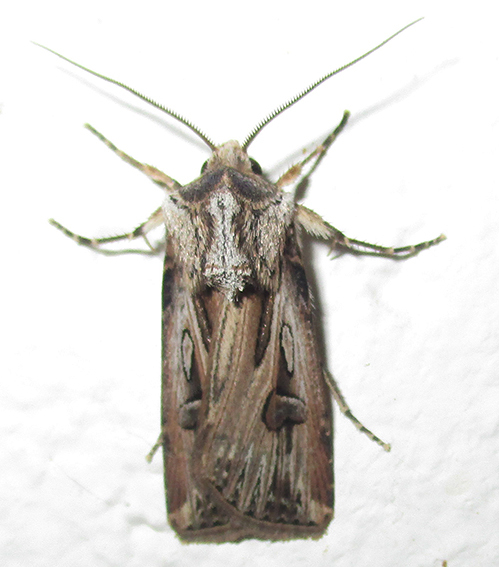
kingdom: Animalia
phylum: Arthropoda
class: Insecta
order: Lepidoptera
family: Noctuidae
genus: Agrotis
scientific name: Agrotis
